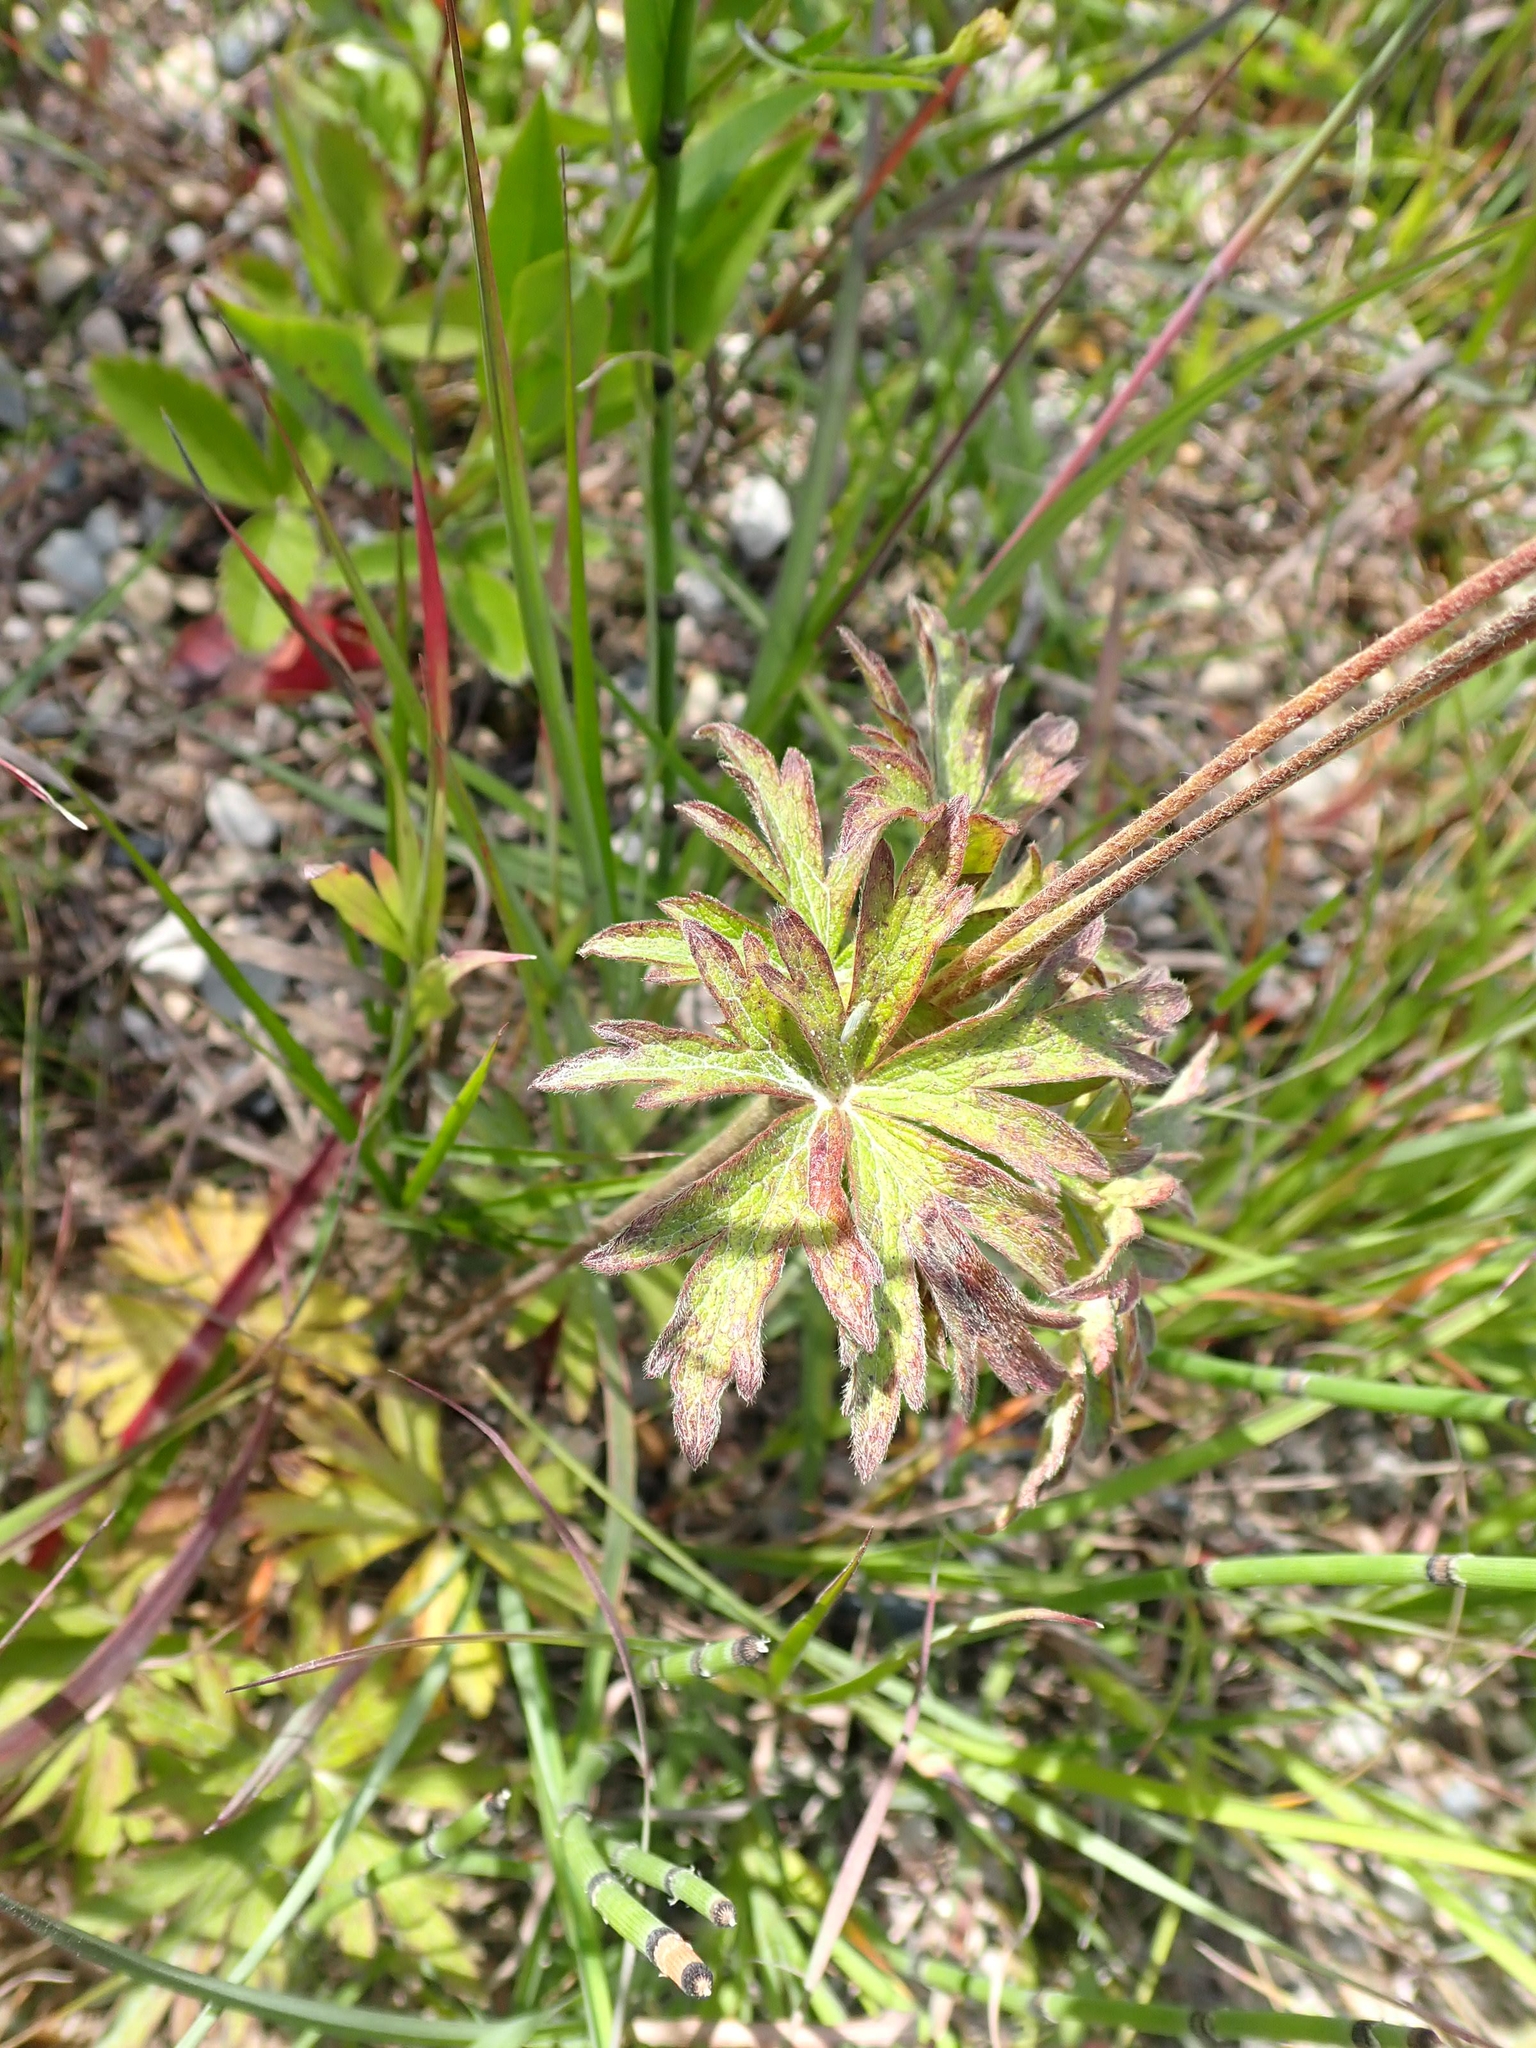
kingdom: Plantae
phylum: Tracheophyta
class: Magnoliopsida
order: Ranunculales
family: Ranunculaceae
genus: Anemone
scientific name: Anemone virginiana
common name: Tall anemone
